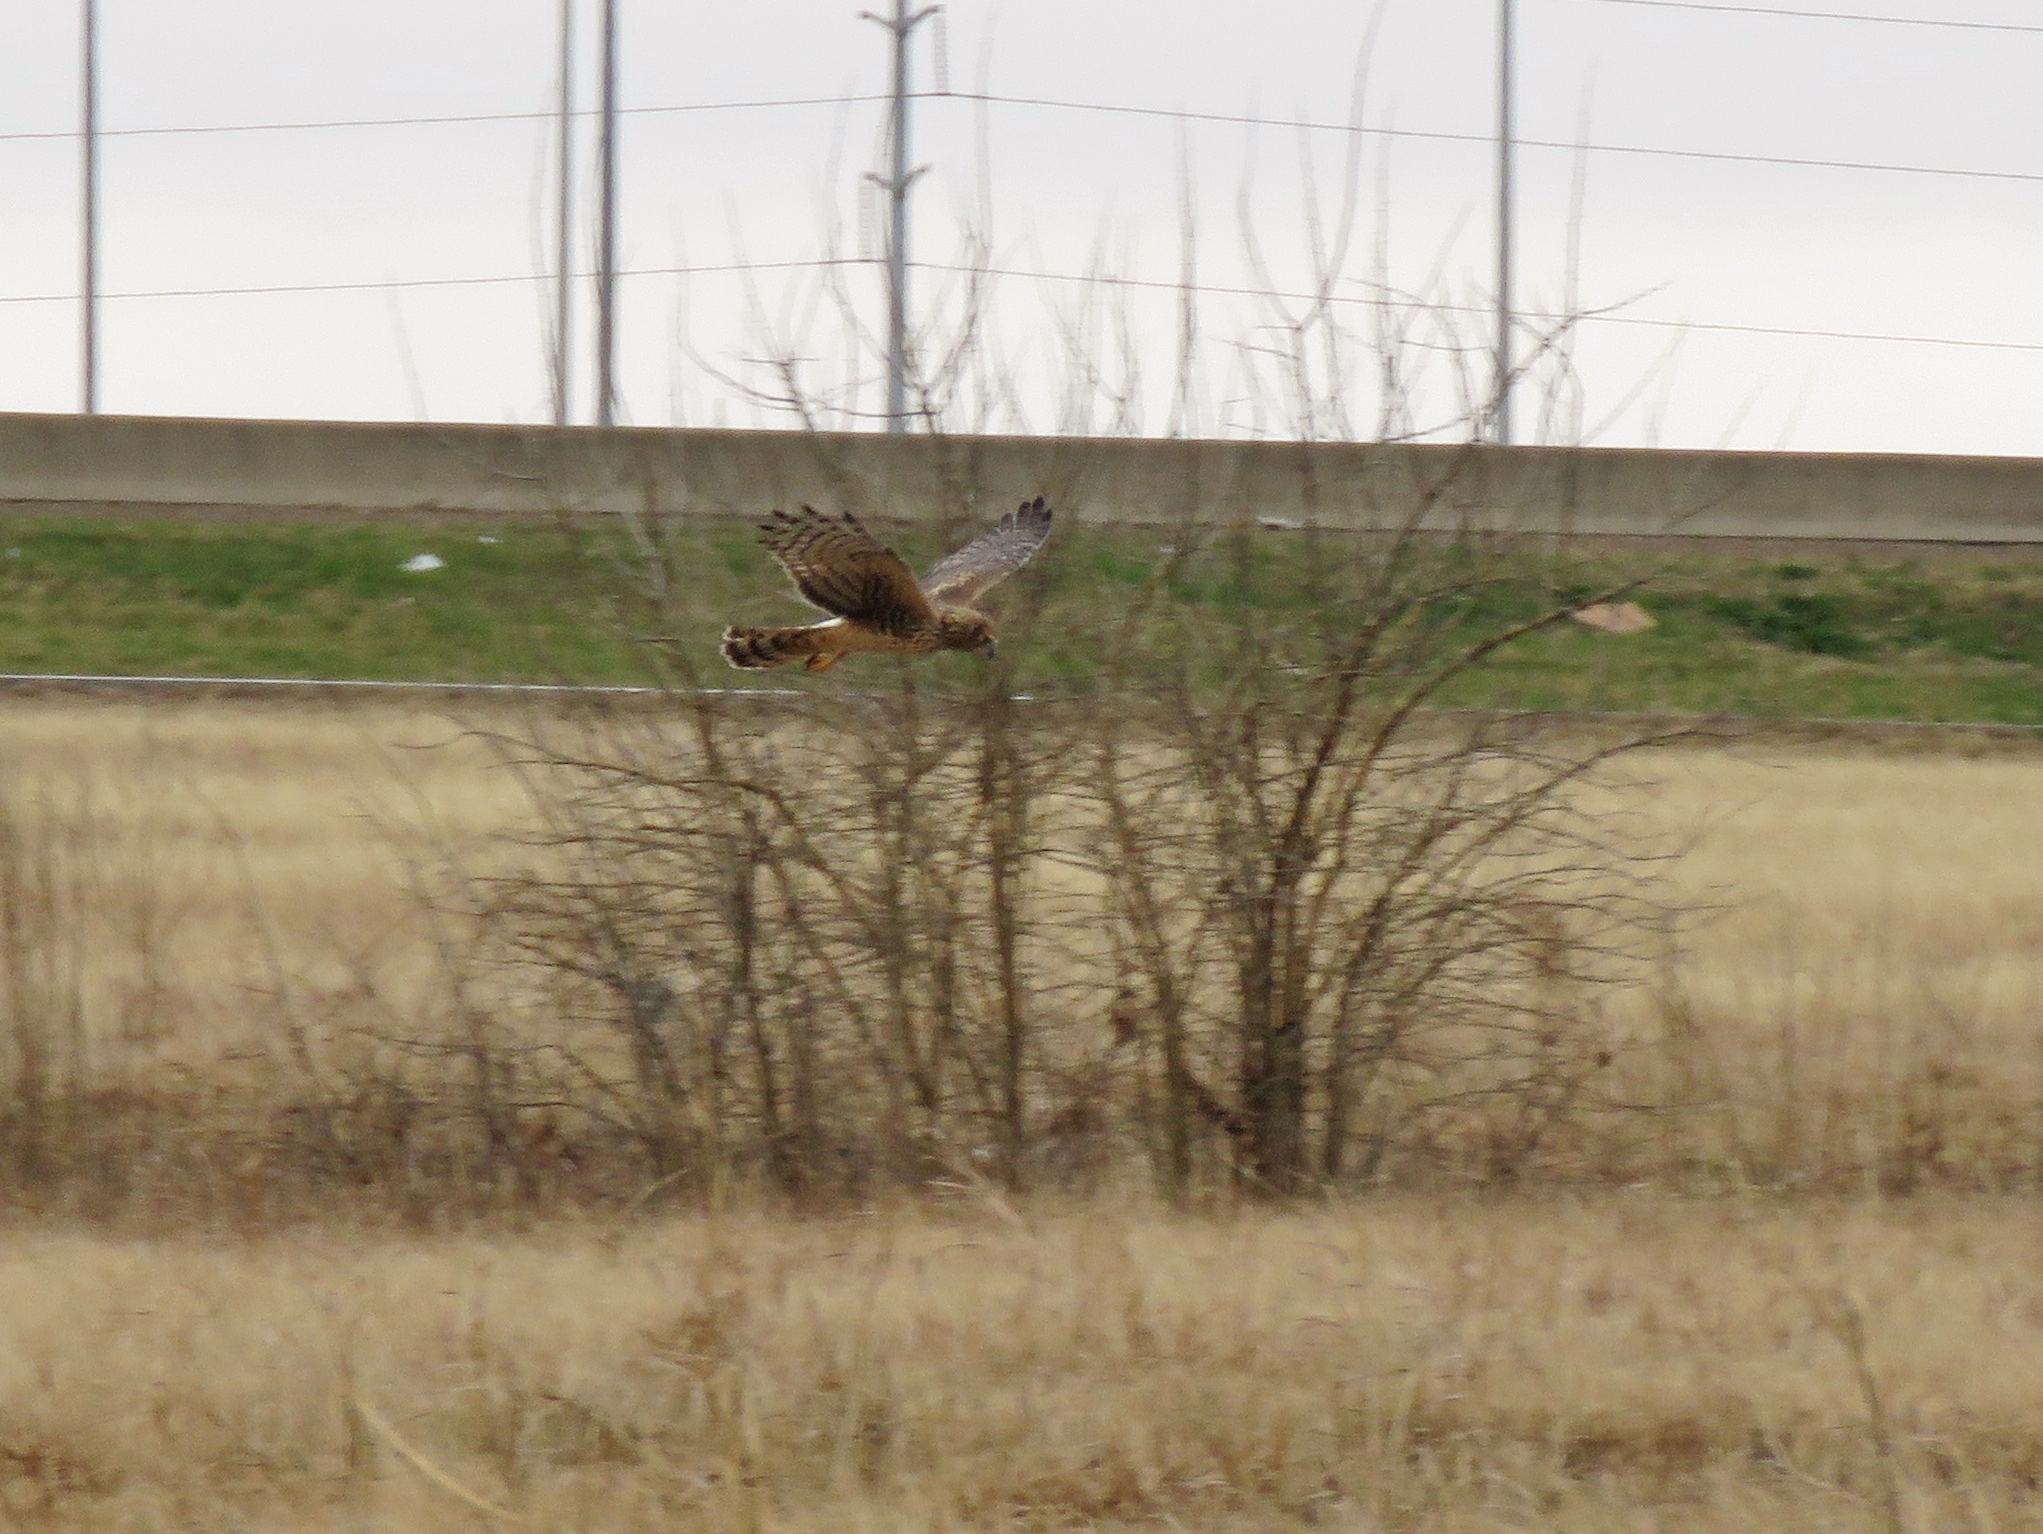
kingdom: Animalia
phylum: Chordata
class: Aves
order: Accipitriformes
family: Accipitridae
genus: Circus
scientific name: Circus cyaneus
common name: Hen harrier
